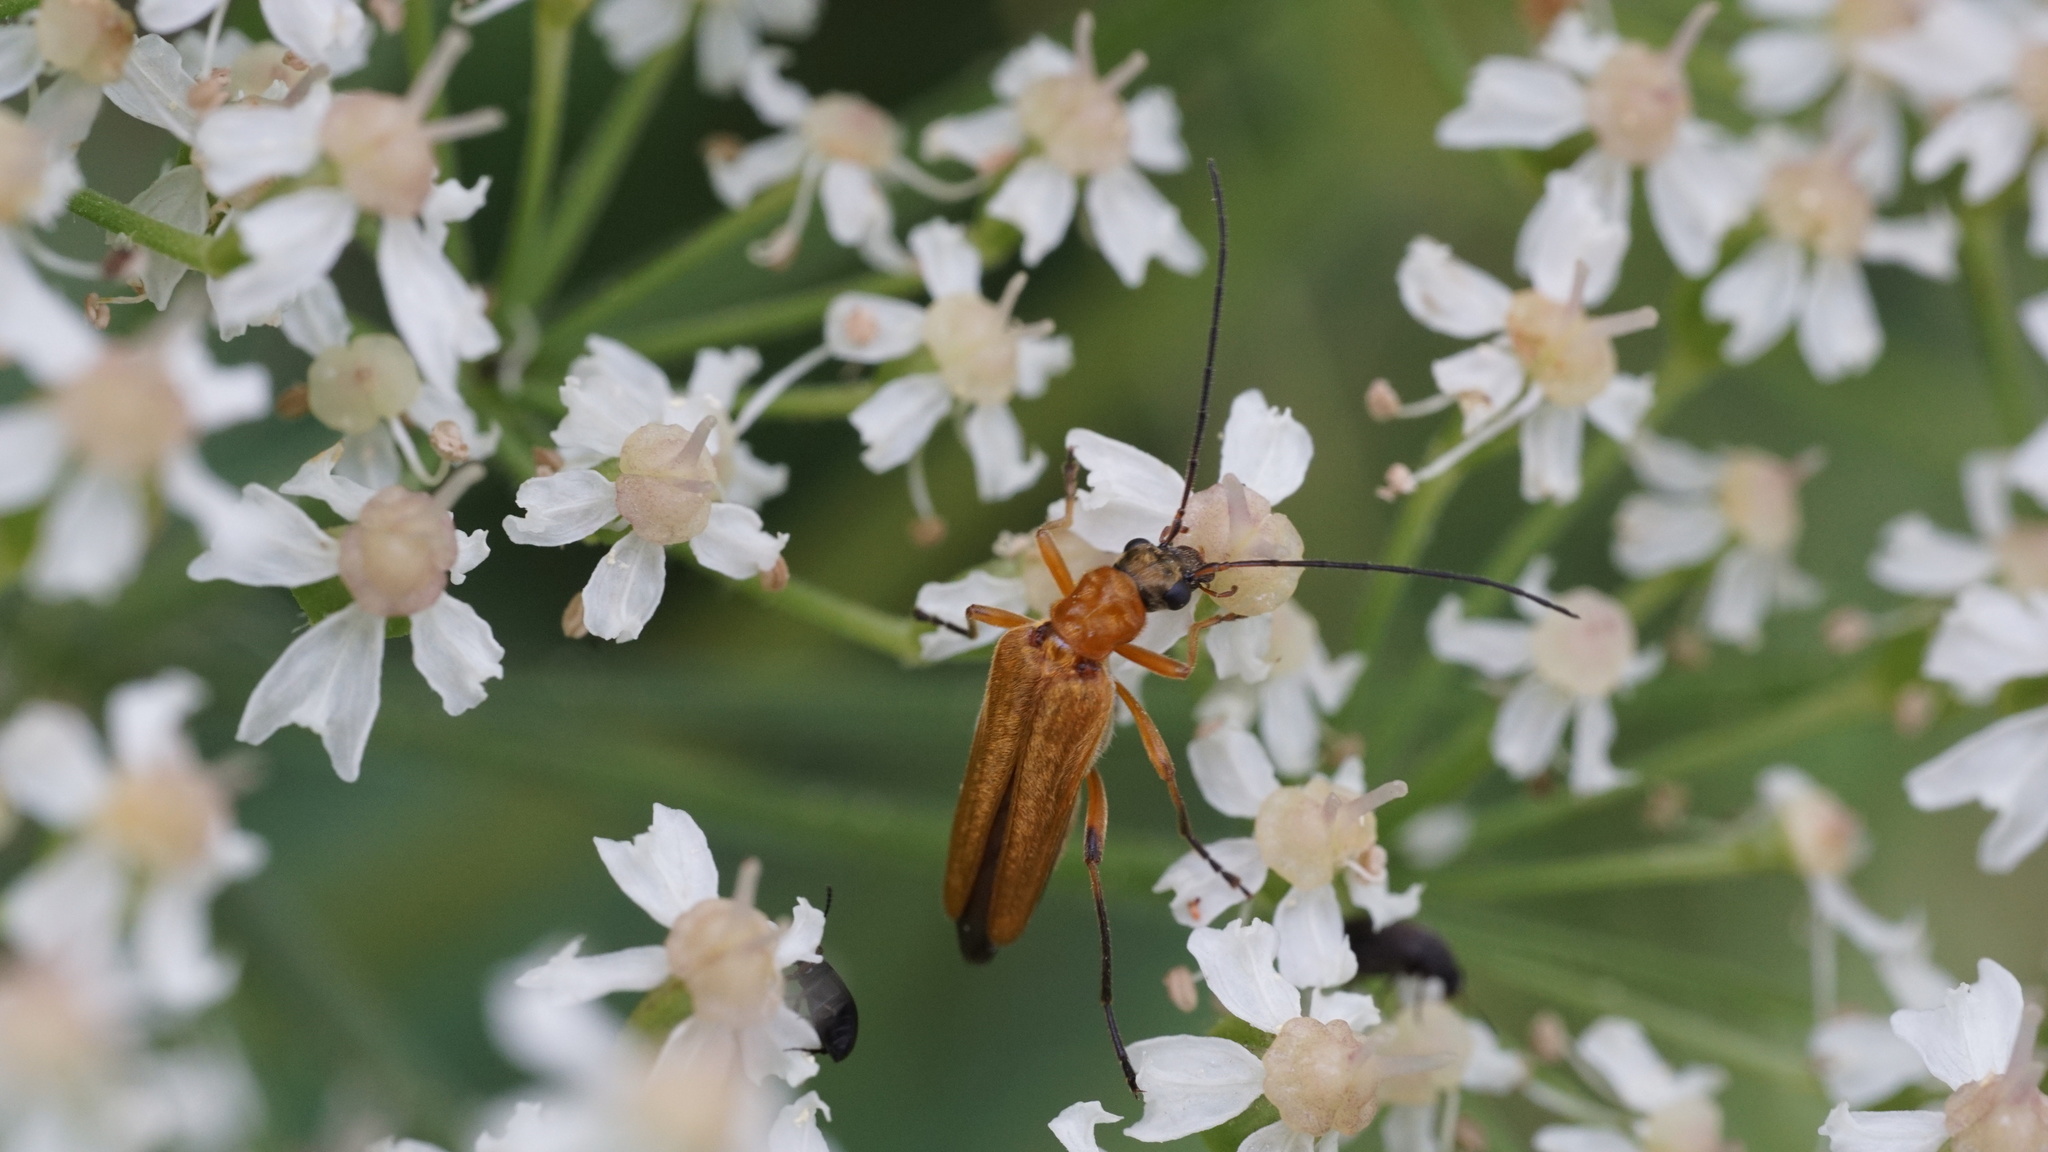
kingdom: Animalia
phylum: Arthropoda
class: Insecta
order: Coleoptera
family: Oedemeridae
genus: Oedemera
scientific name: Oedemera podagrariae
